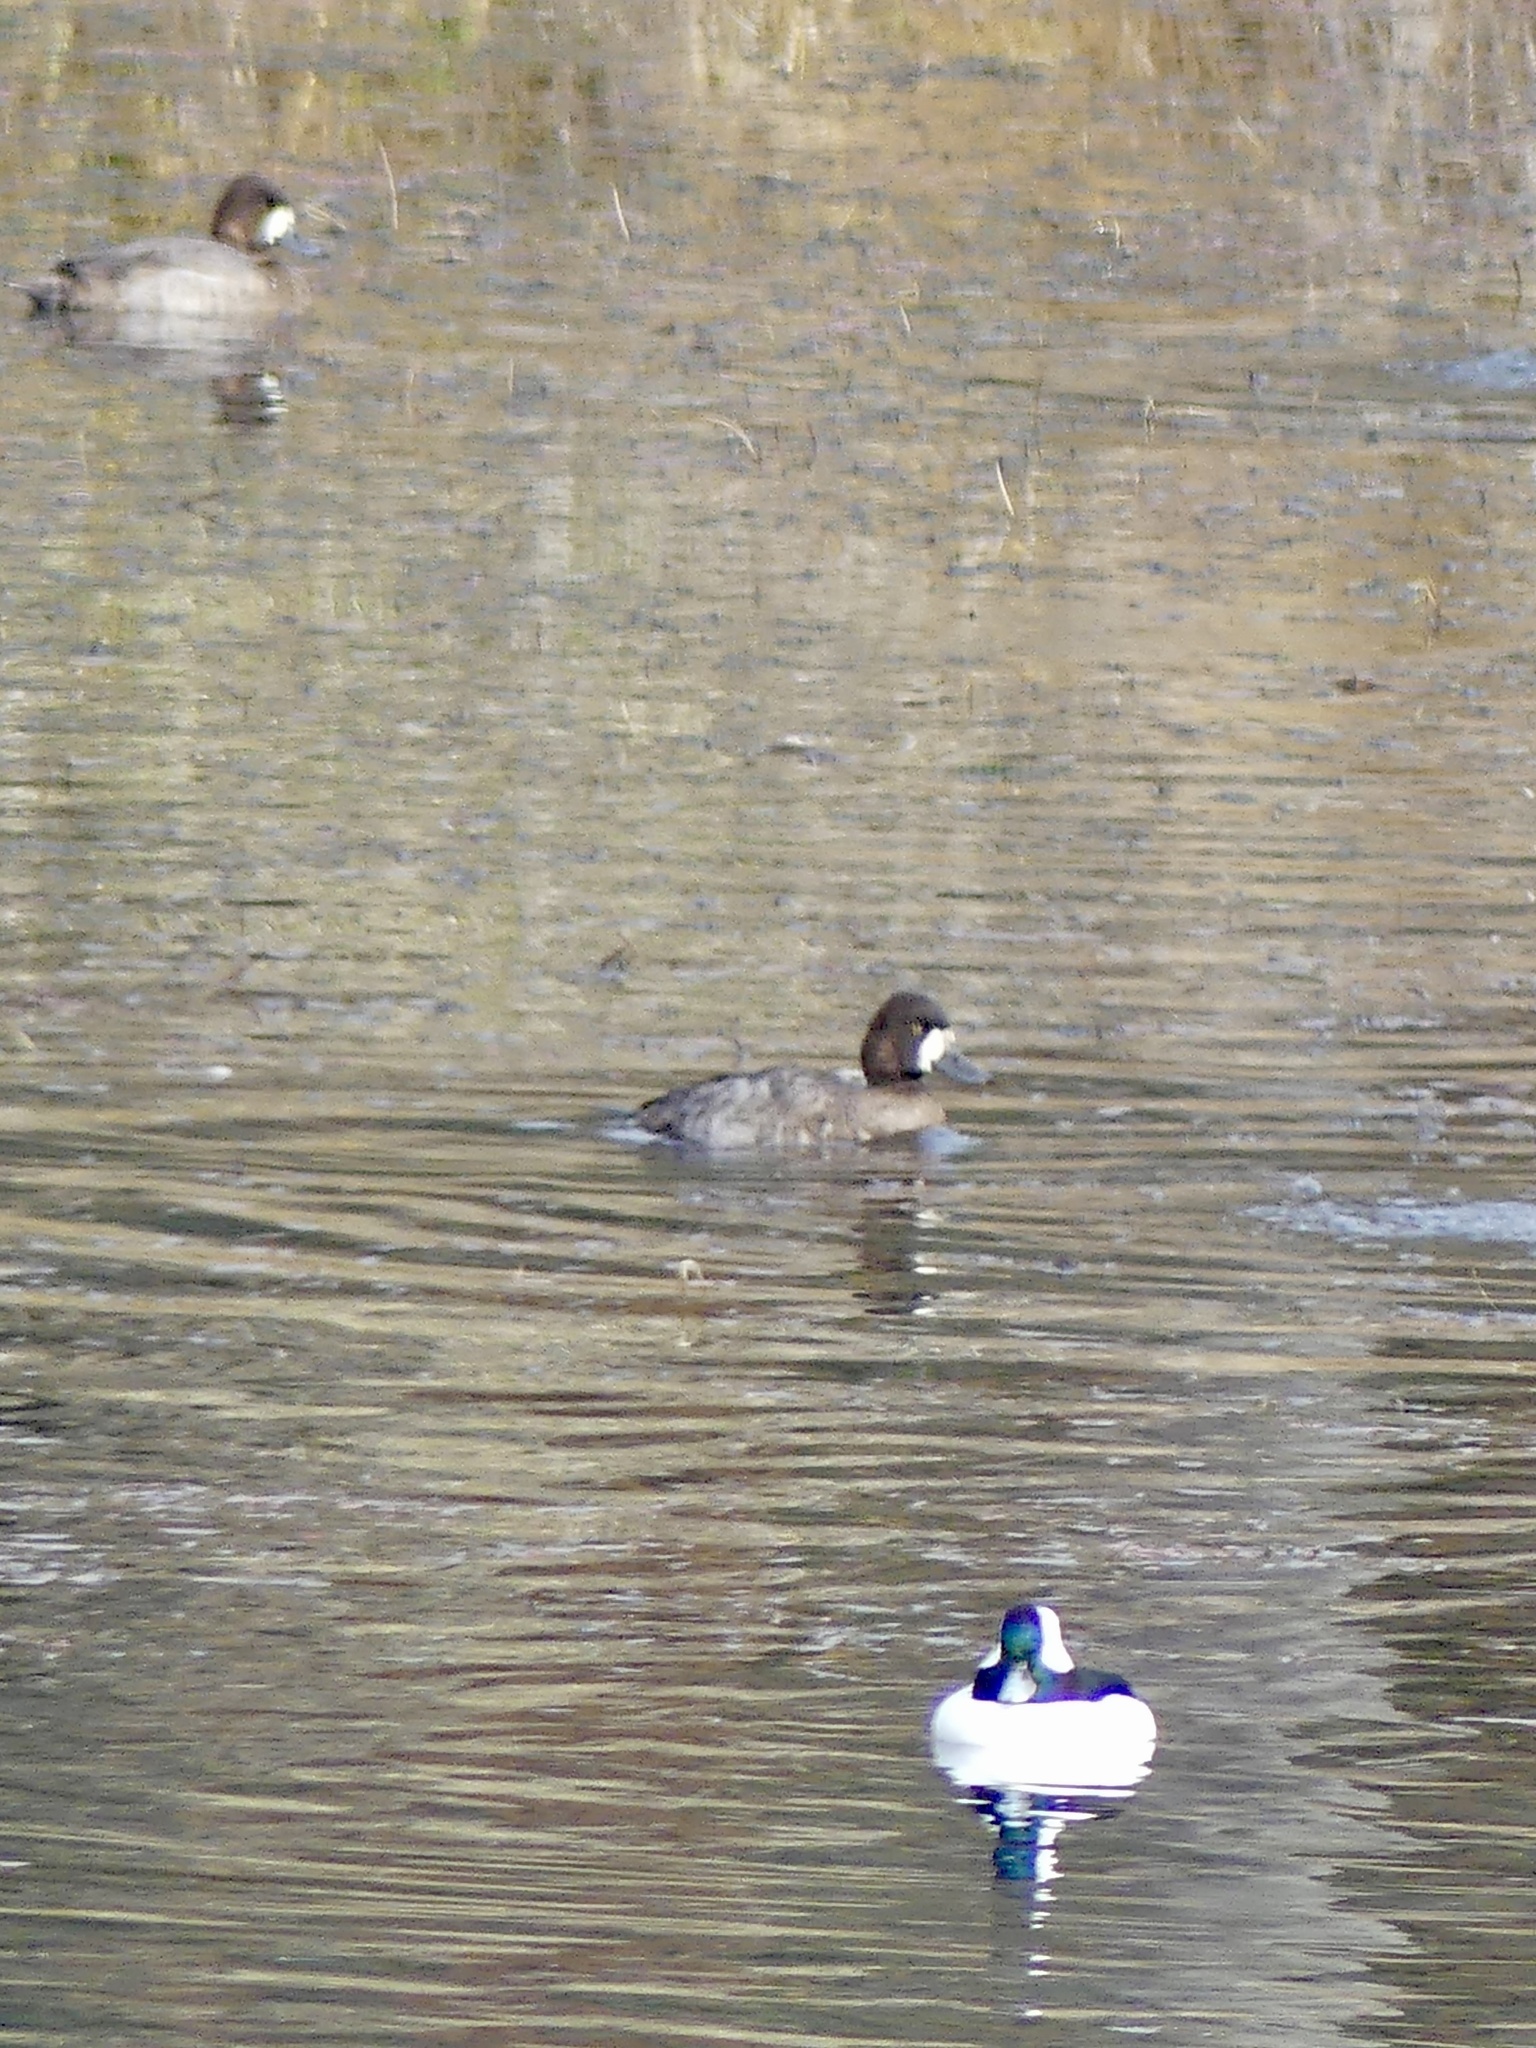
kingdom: Animalia
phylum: Chordata
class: Aves
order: Anseriformes
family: Anatidae
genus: Aythya
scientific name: Aythya affinis
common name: Lesser scaup
